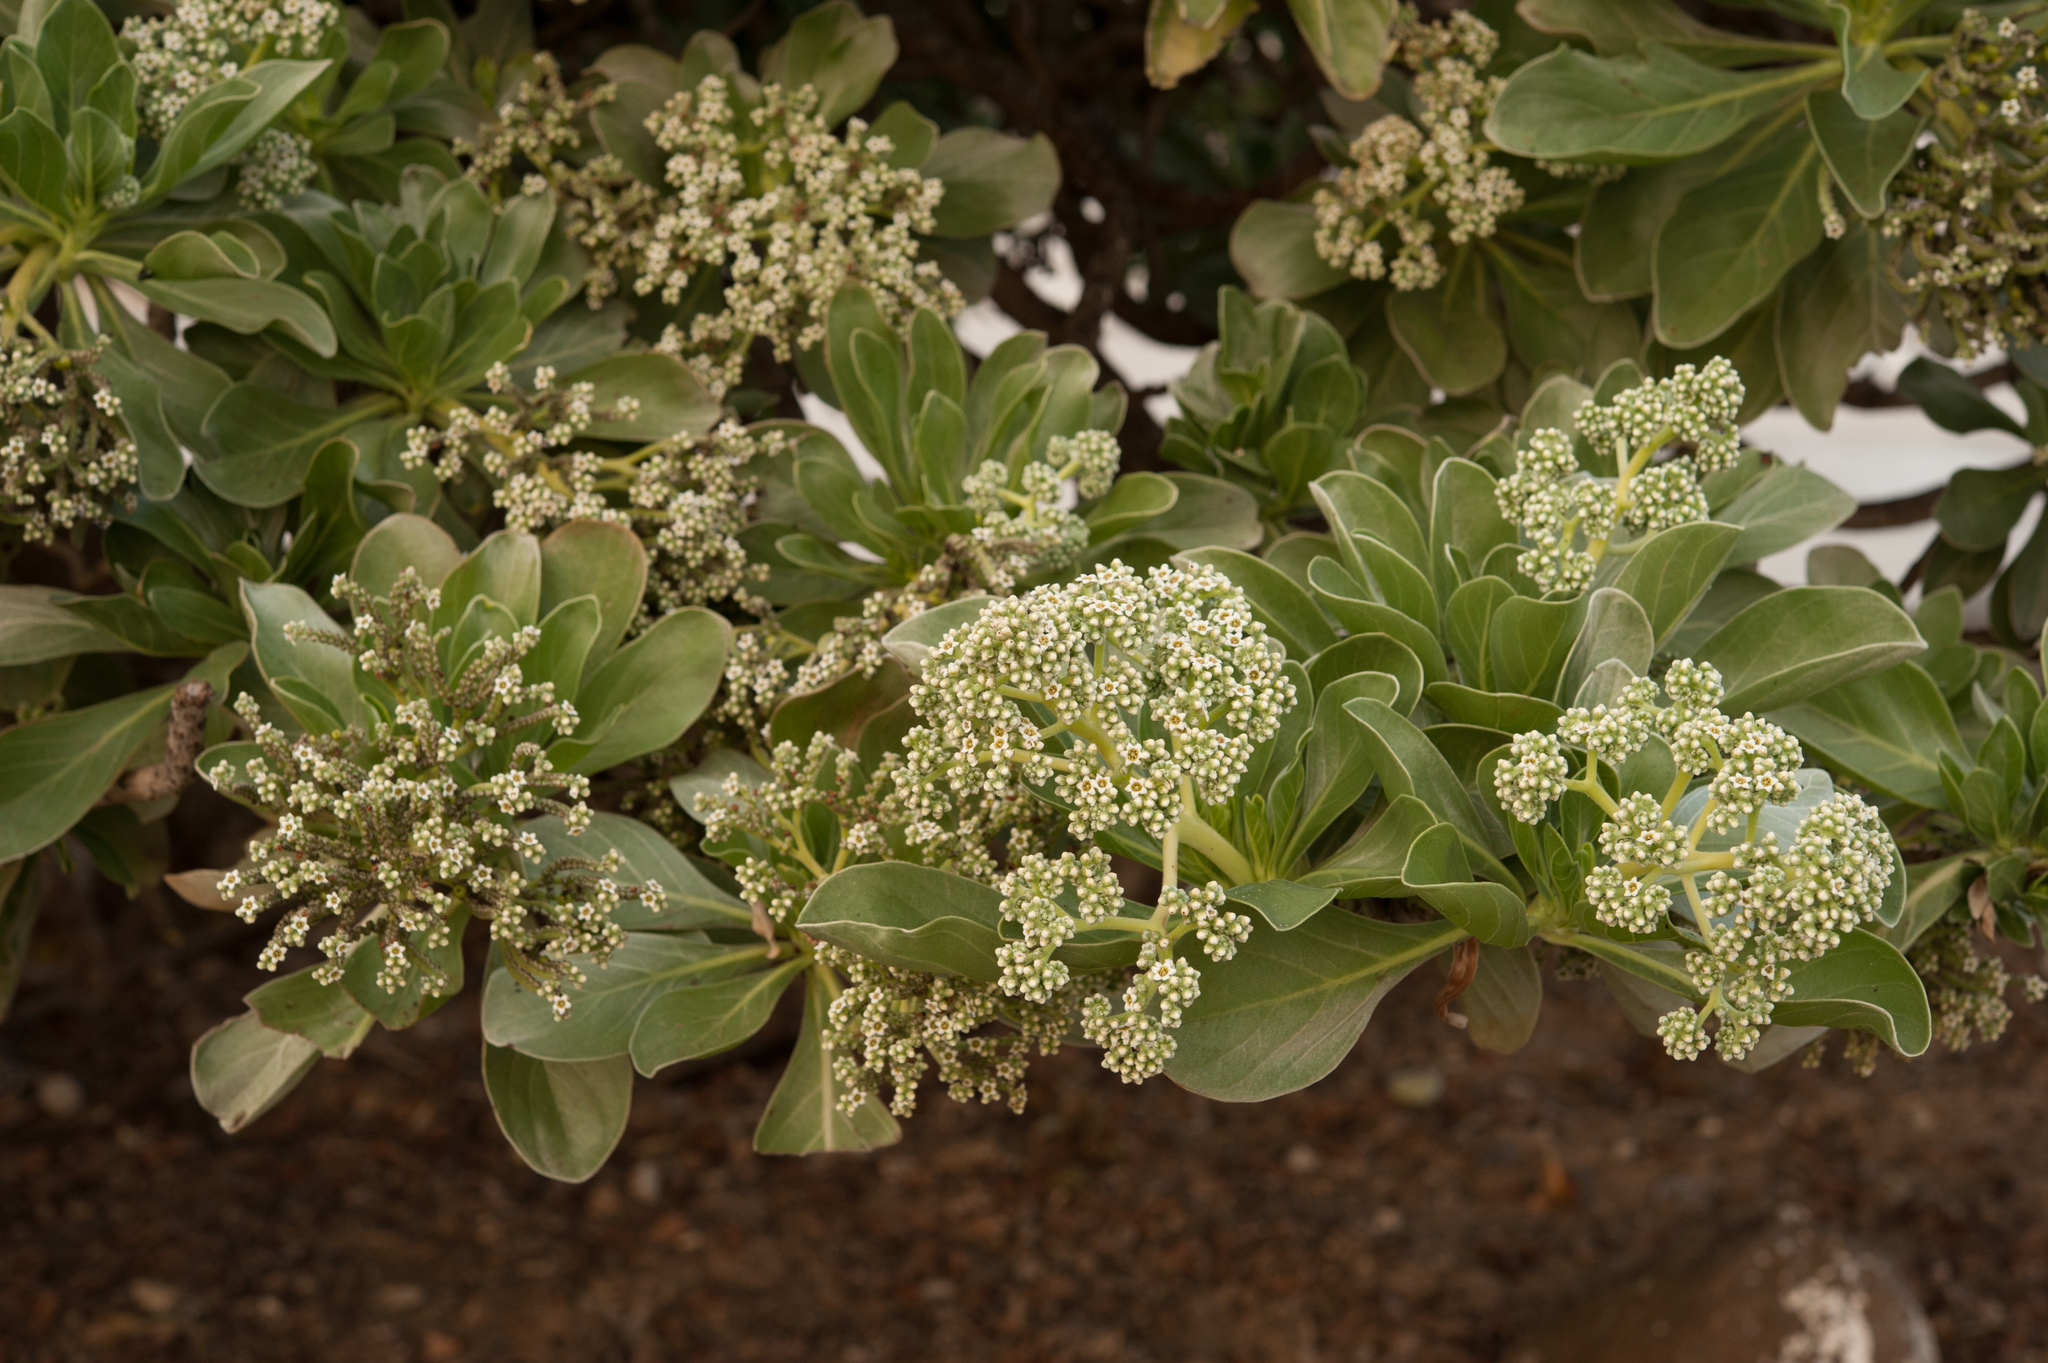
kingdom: Plantae
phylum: Tracheophyta
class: Magnoliopsida
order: Boraginales
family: Heliotropiaceae
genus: Heliotropium
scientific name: Heliotropium velutinum
